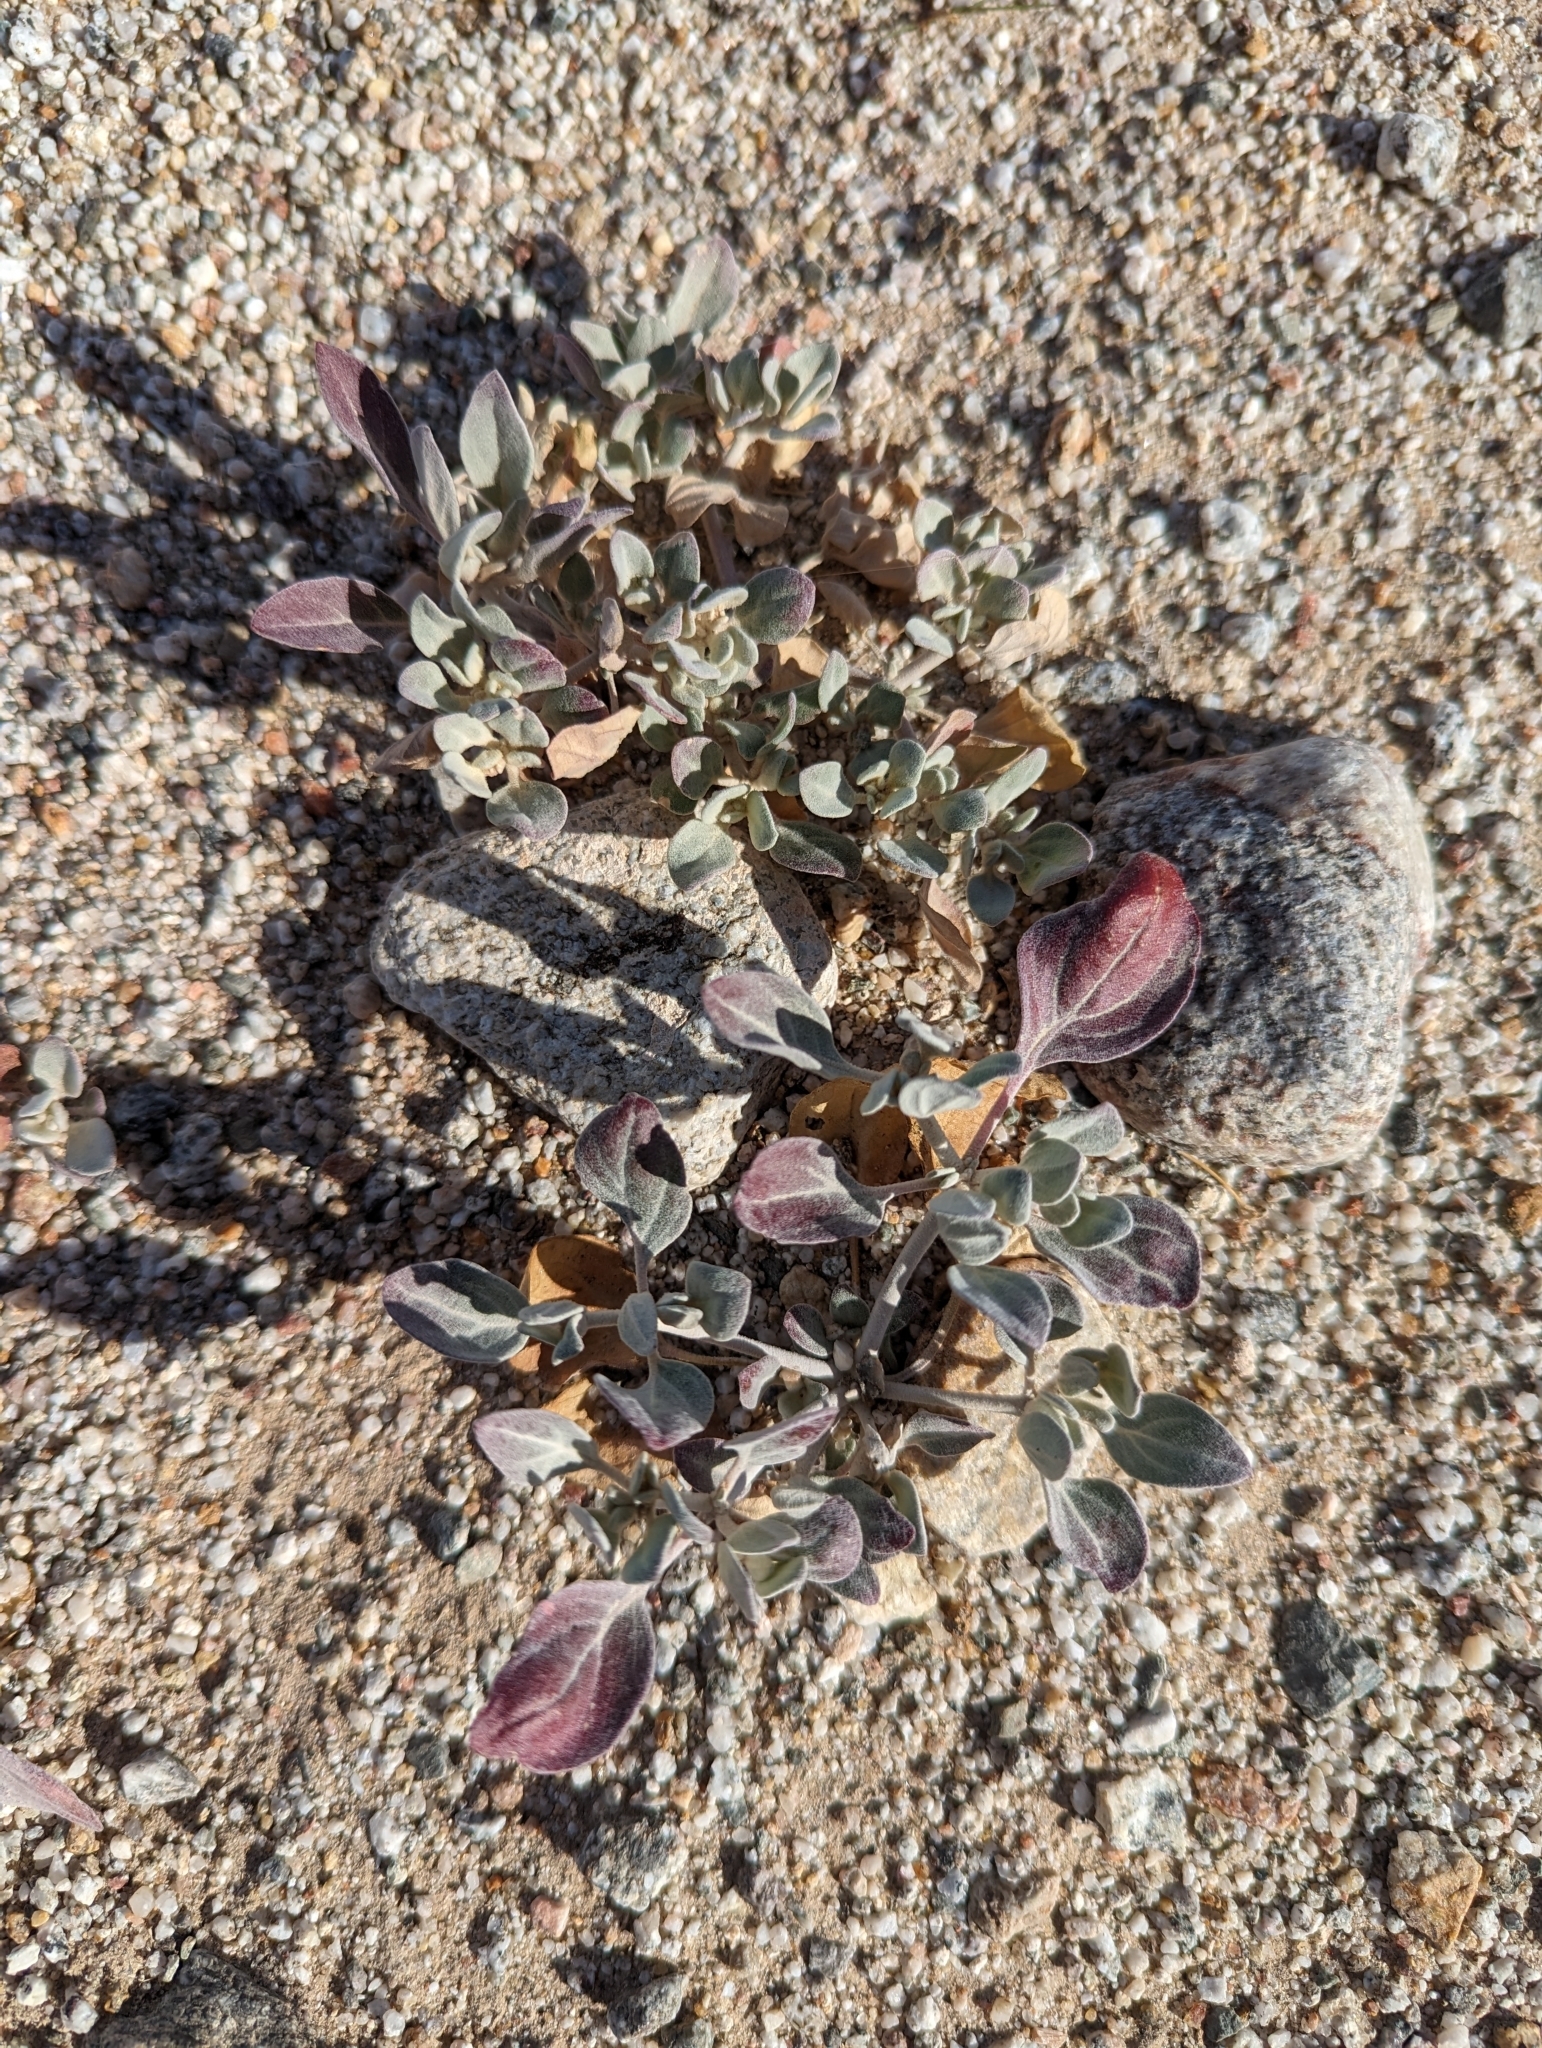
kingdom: Plantae
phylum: Tracheophyta
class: Magnoliopsida
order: Caryophyllales
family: Amaranthaceae
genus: Tidestromia
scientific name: Tidestromia suffruticosa
